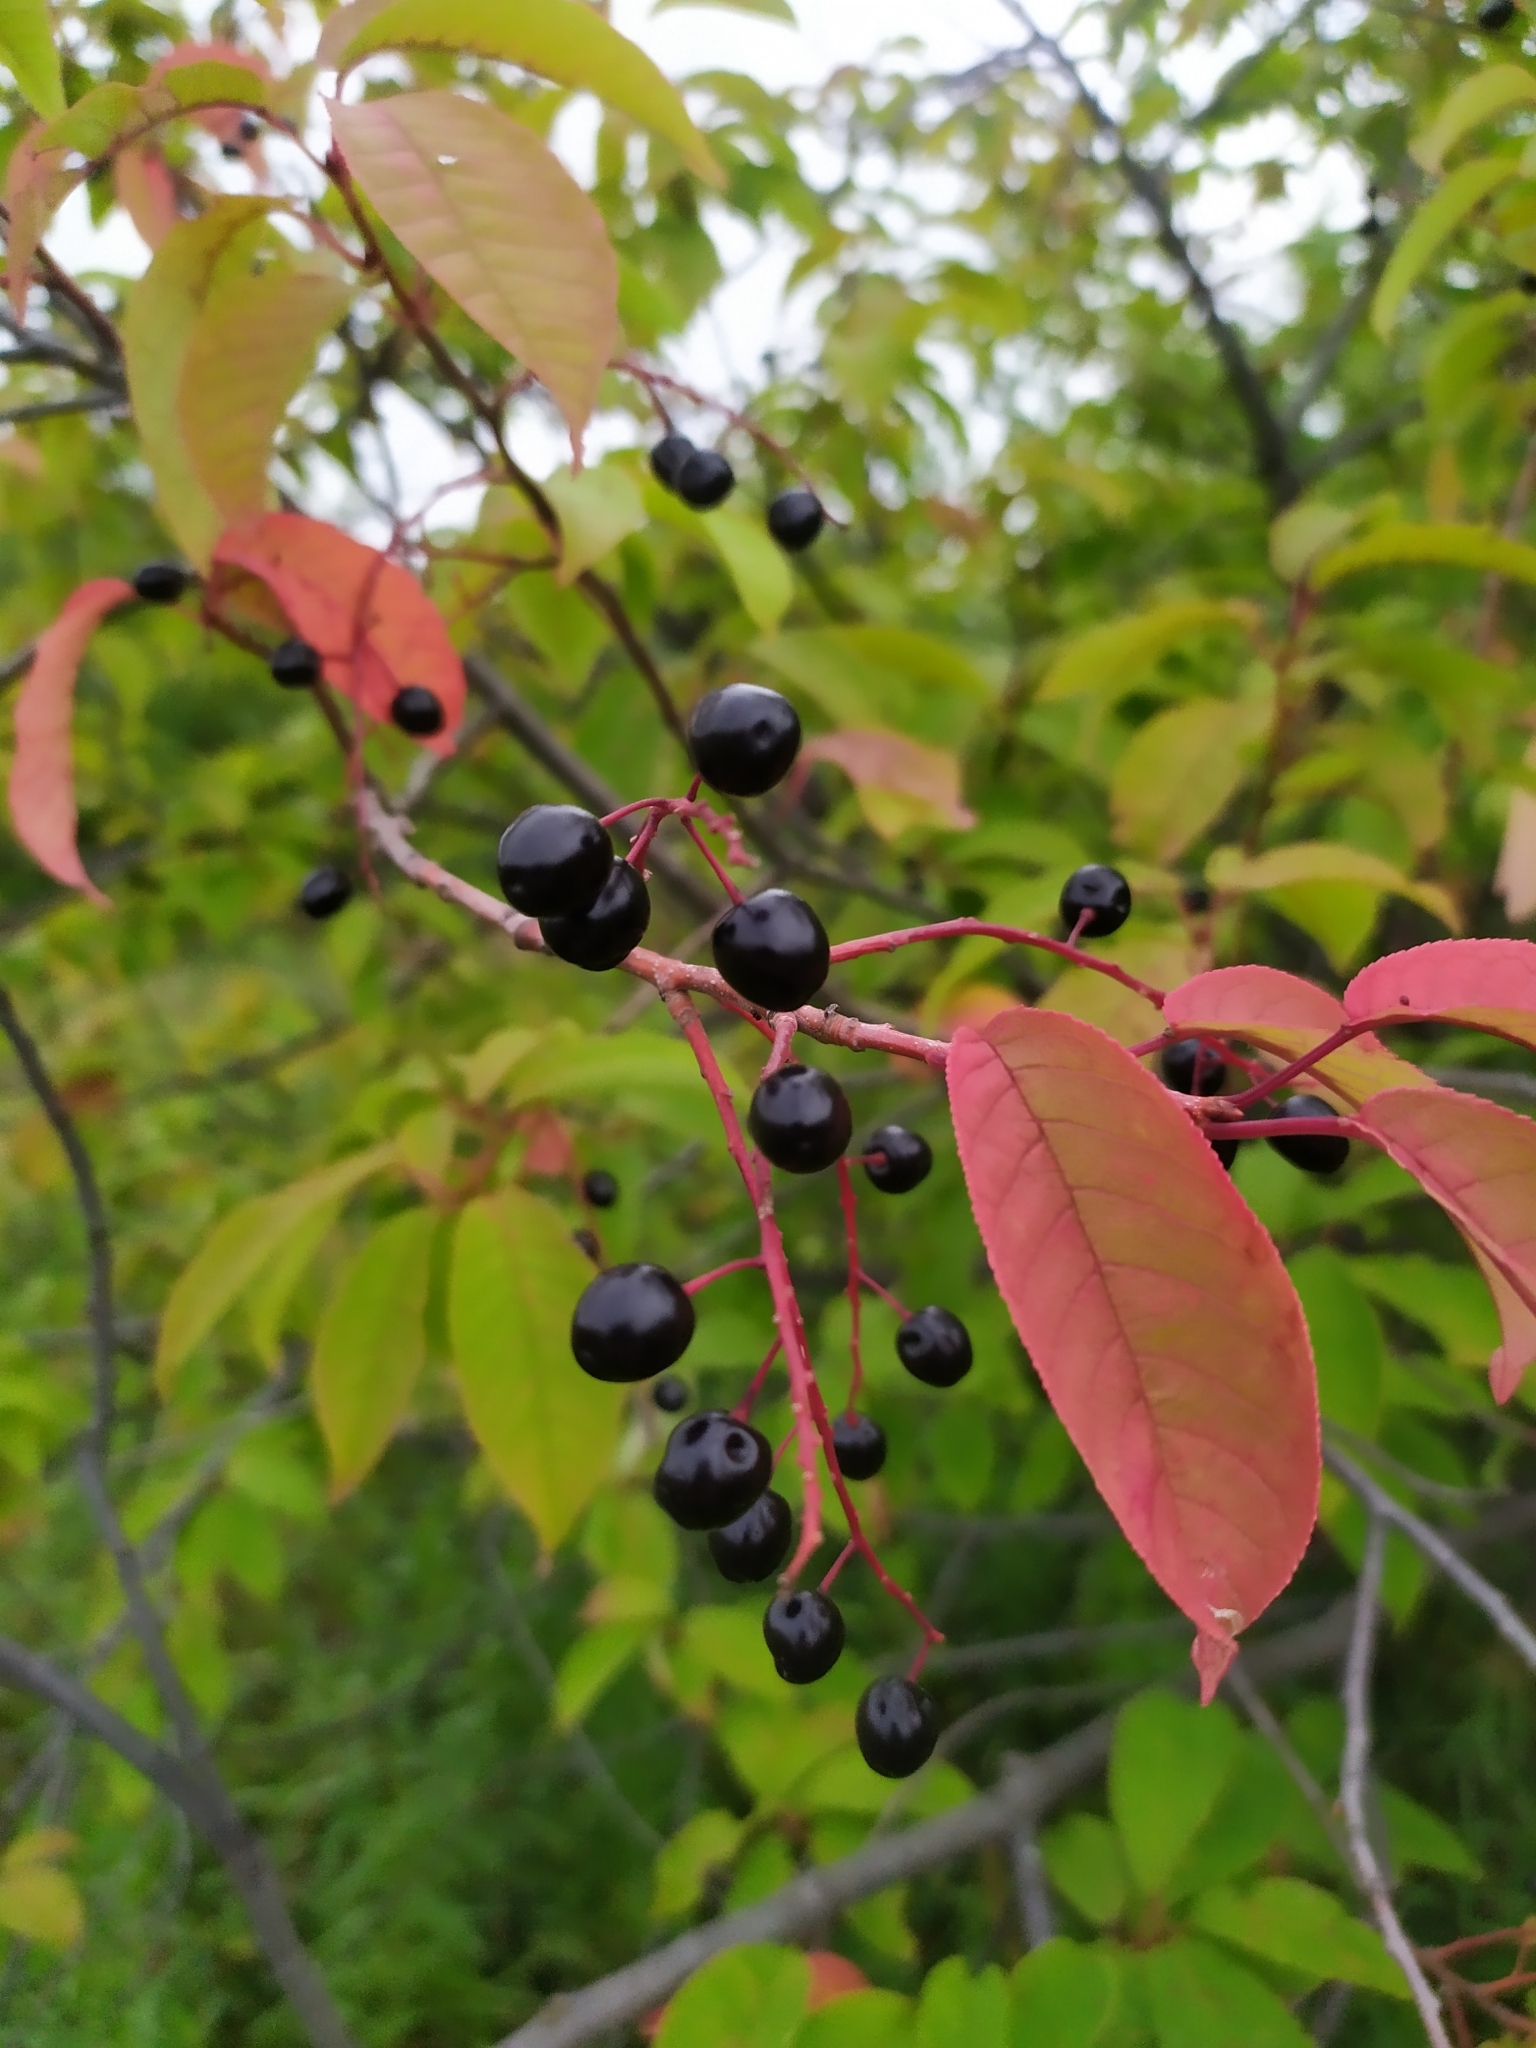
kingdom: Plantae
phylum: Tracheophyta
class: Magnoliopsida
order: Rosales
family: Rosaceae
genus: Prunus
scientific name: Prunus padus
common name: Bird cherry
